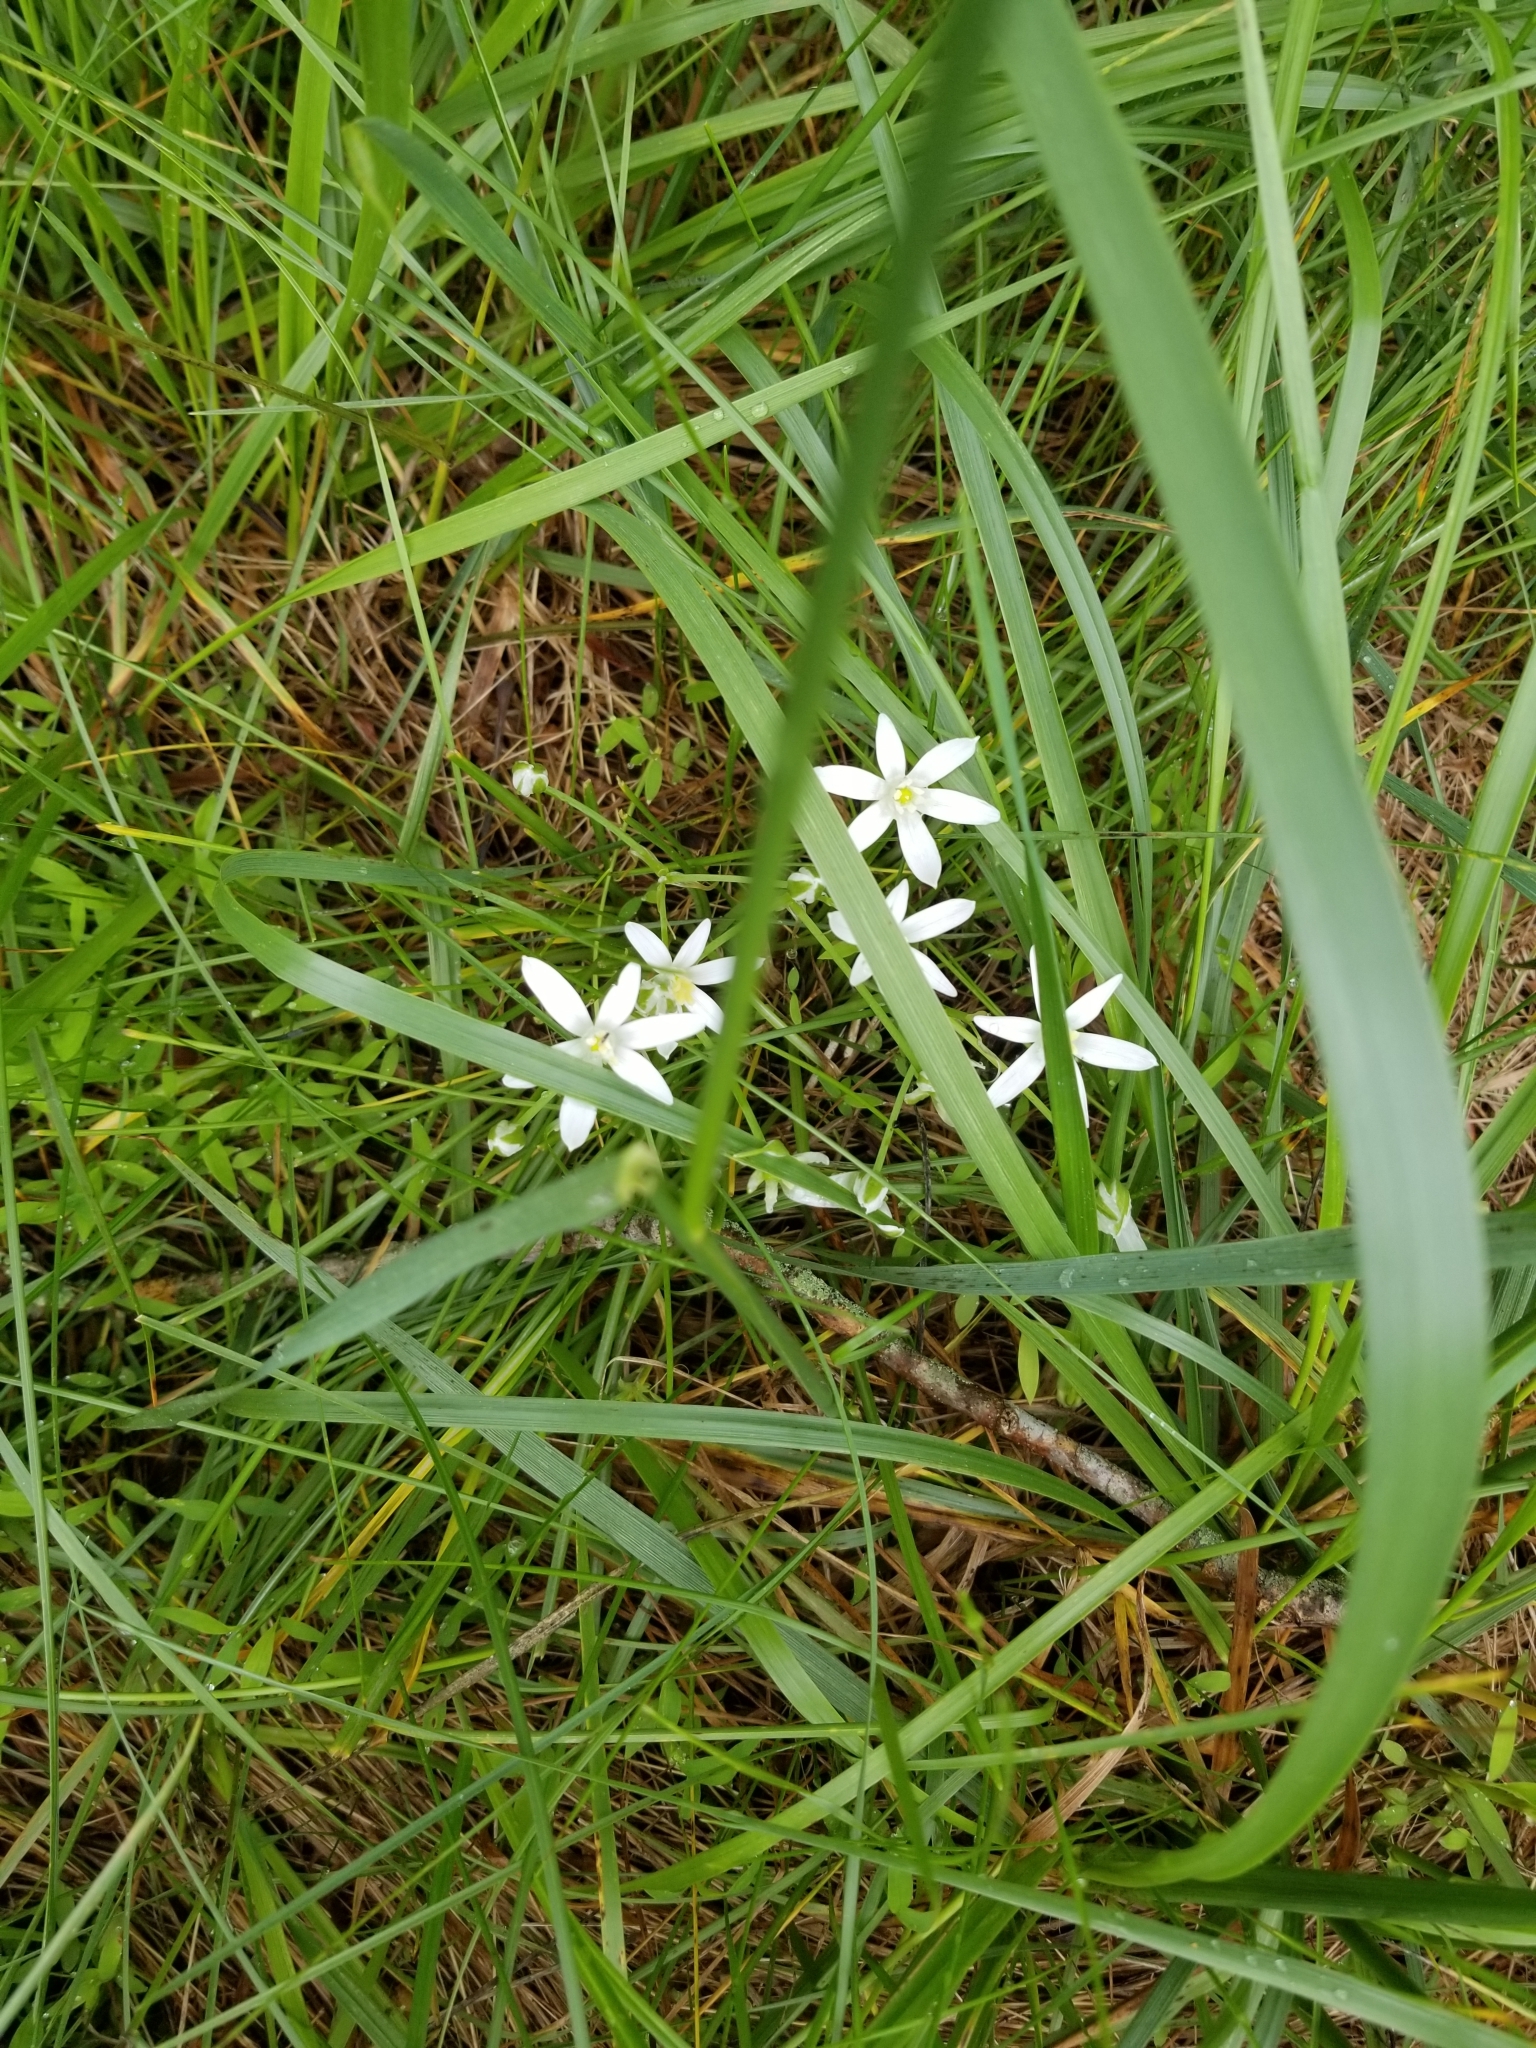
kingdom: Plantae
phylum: Tracheophyta
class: Liliopsida
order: Asparagales
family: Asparagaceae
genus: Ornithogalum
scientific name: Ornithogalum umbellatum
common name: Garden star-of-bethlehem
